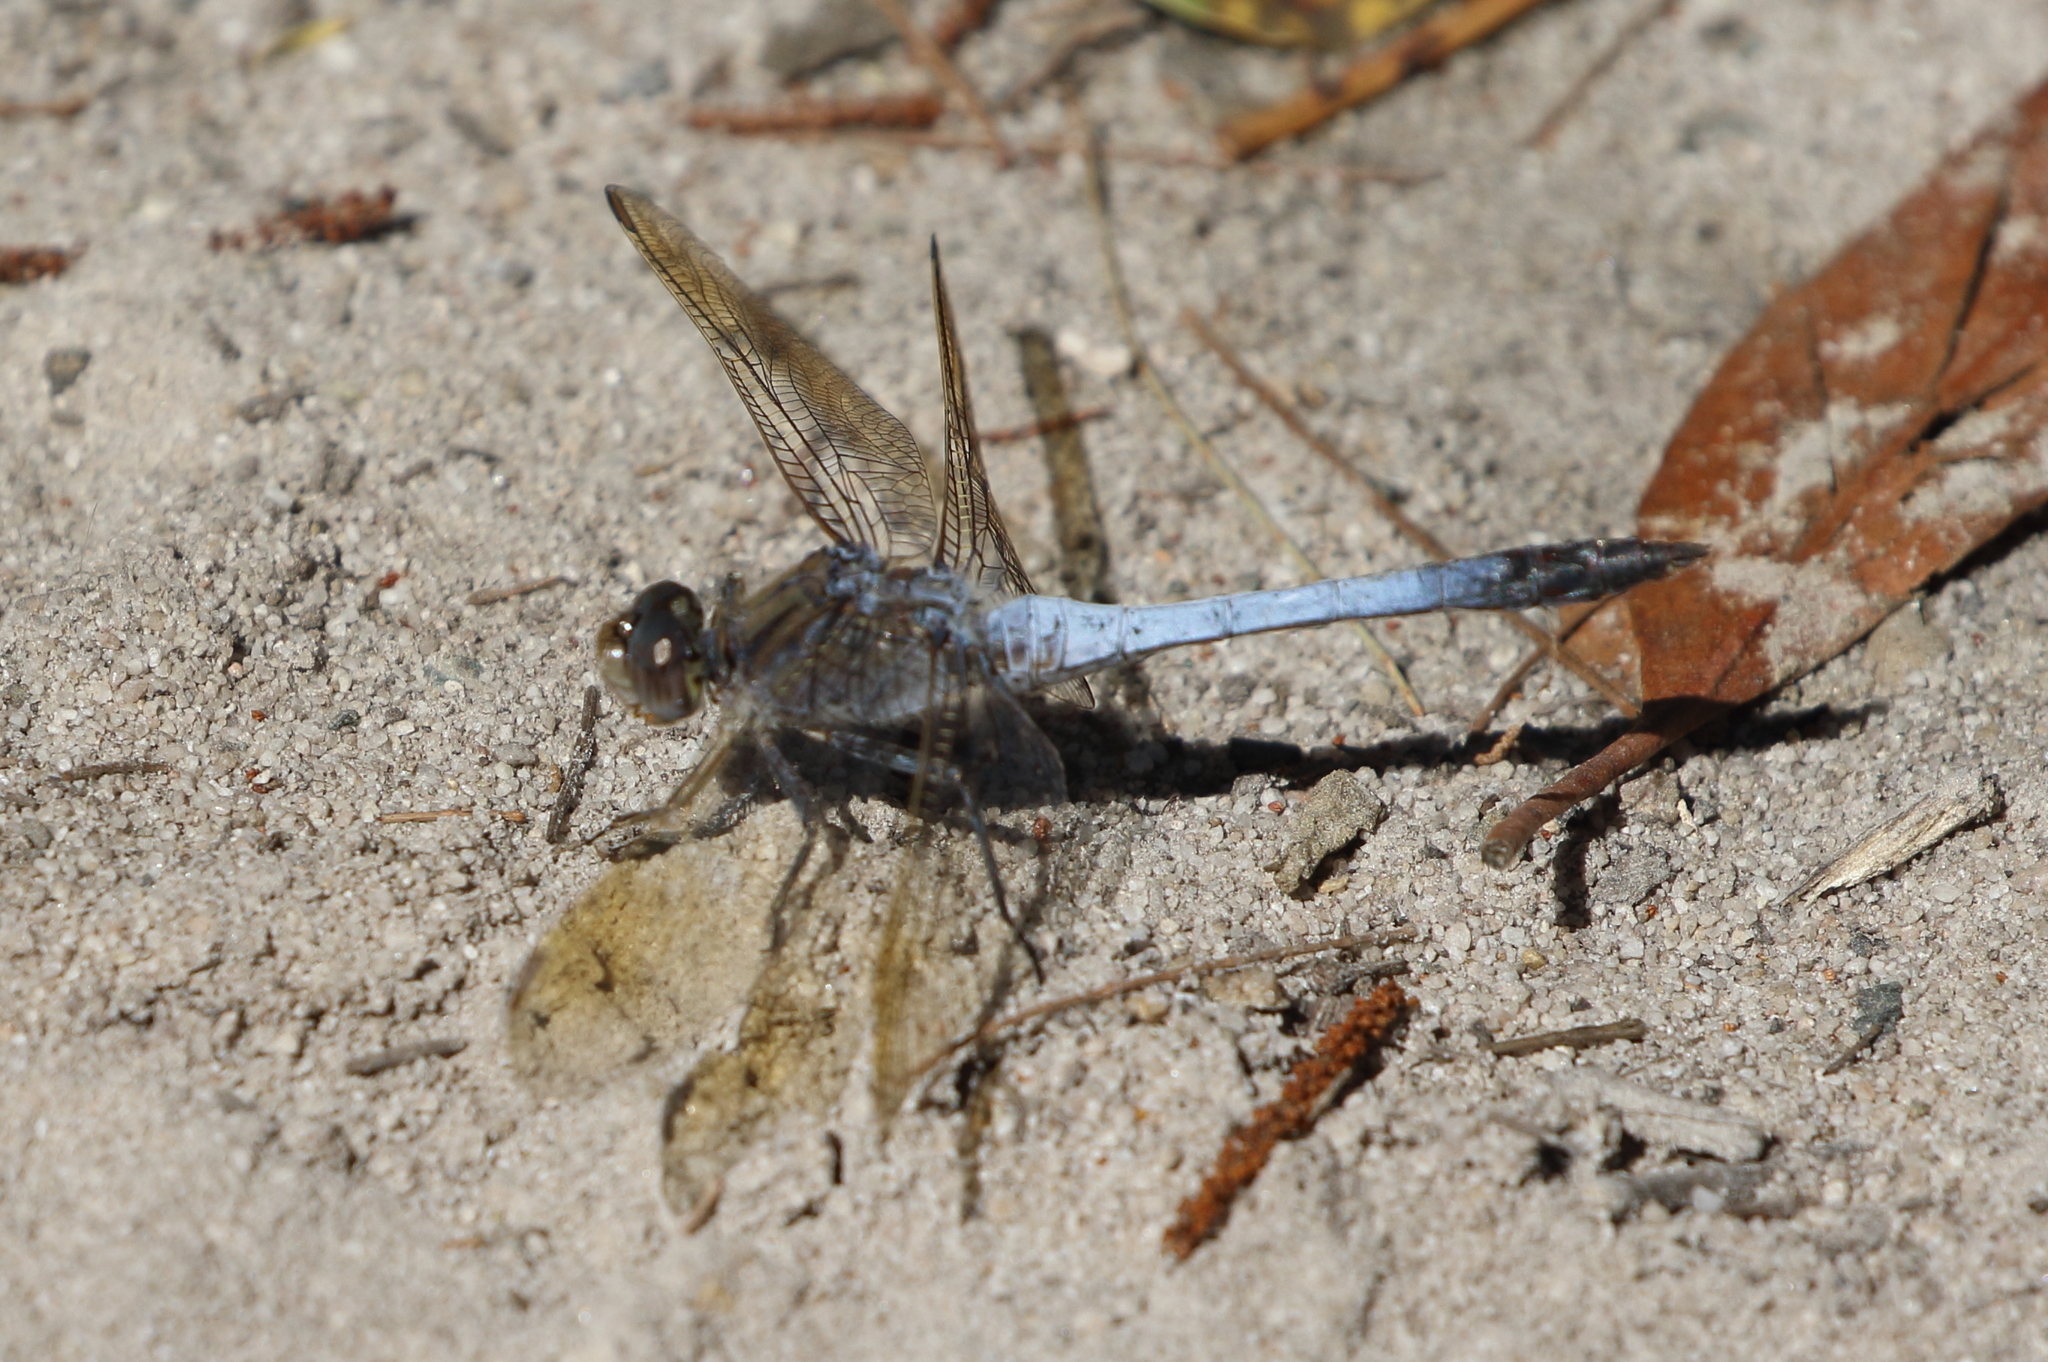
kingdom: Animalia
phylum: Arthropoda
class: Insecta
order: Odonata
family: Libellulidae
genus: Orthetrum
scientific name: Orthetrum caledonicum
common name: Blue skimmer
